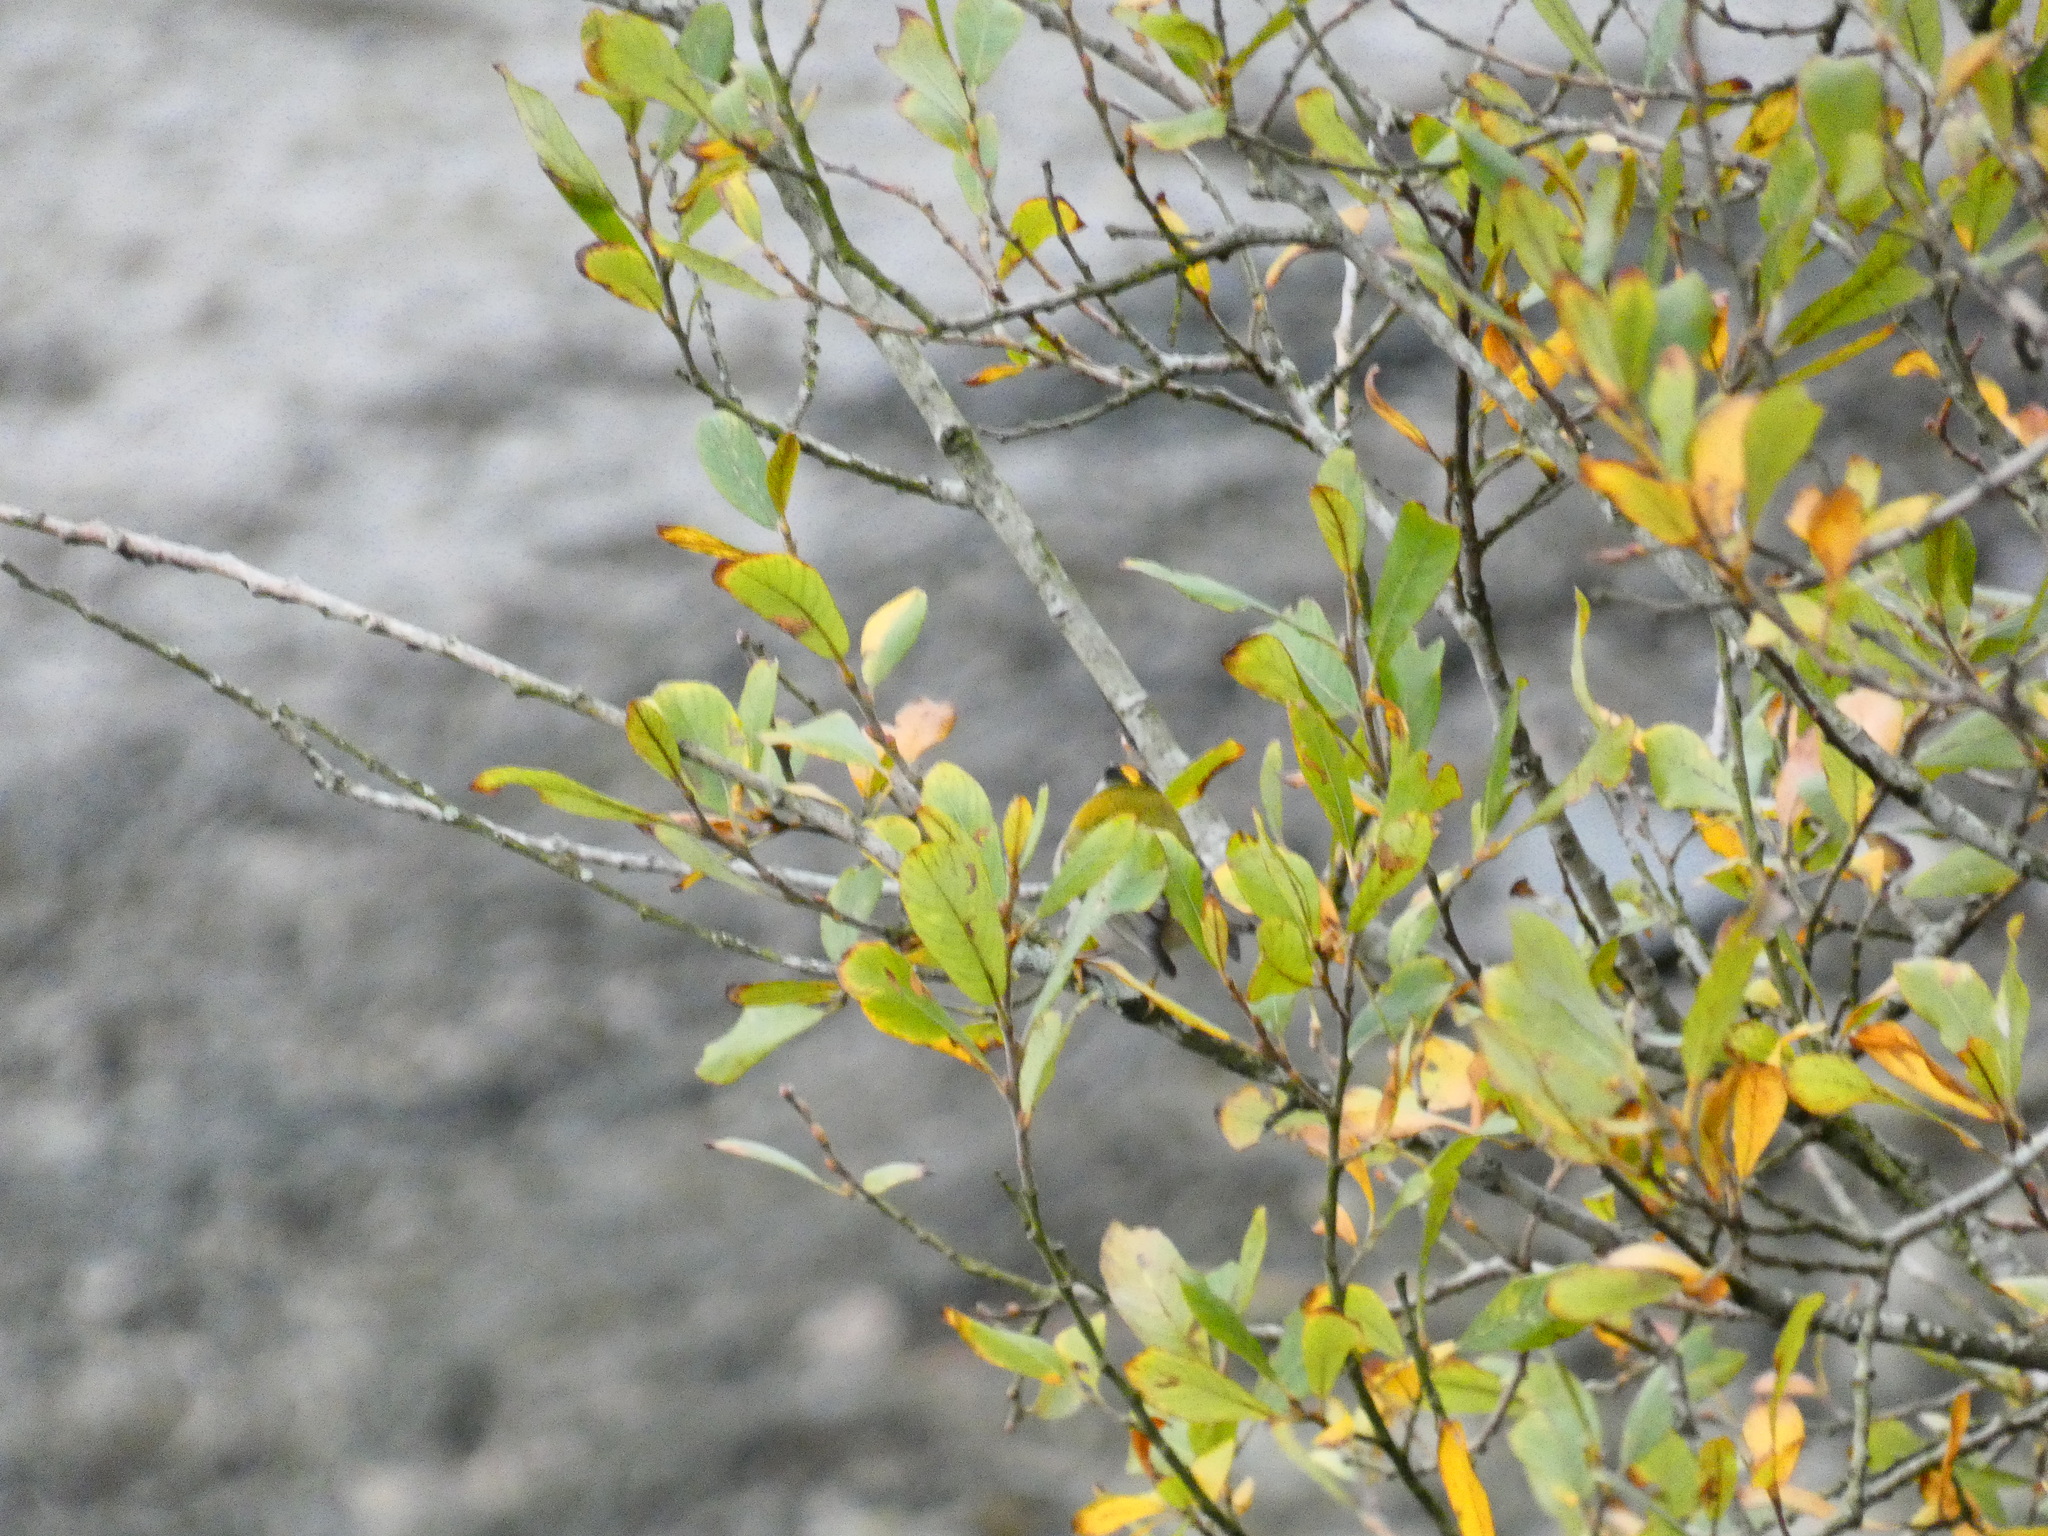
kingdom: Animalia
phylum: Chordata
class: Aves
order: Passeriformes
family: Regulidae
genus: Regulus
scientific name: Regulus ignicapilla
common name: Firecrest
